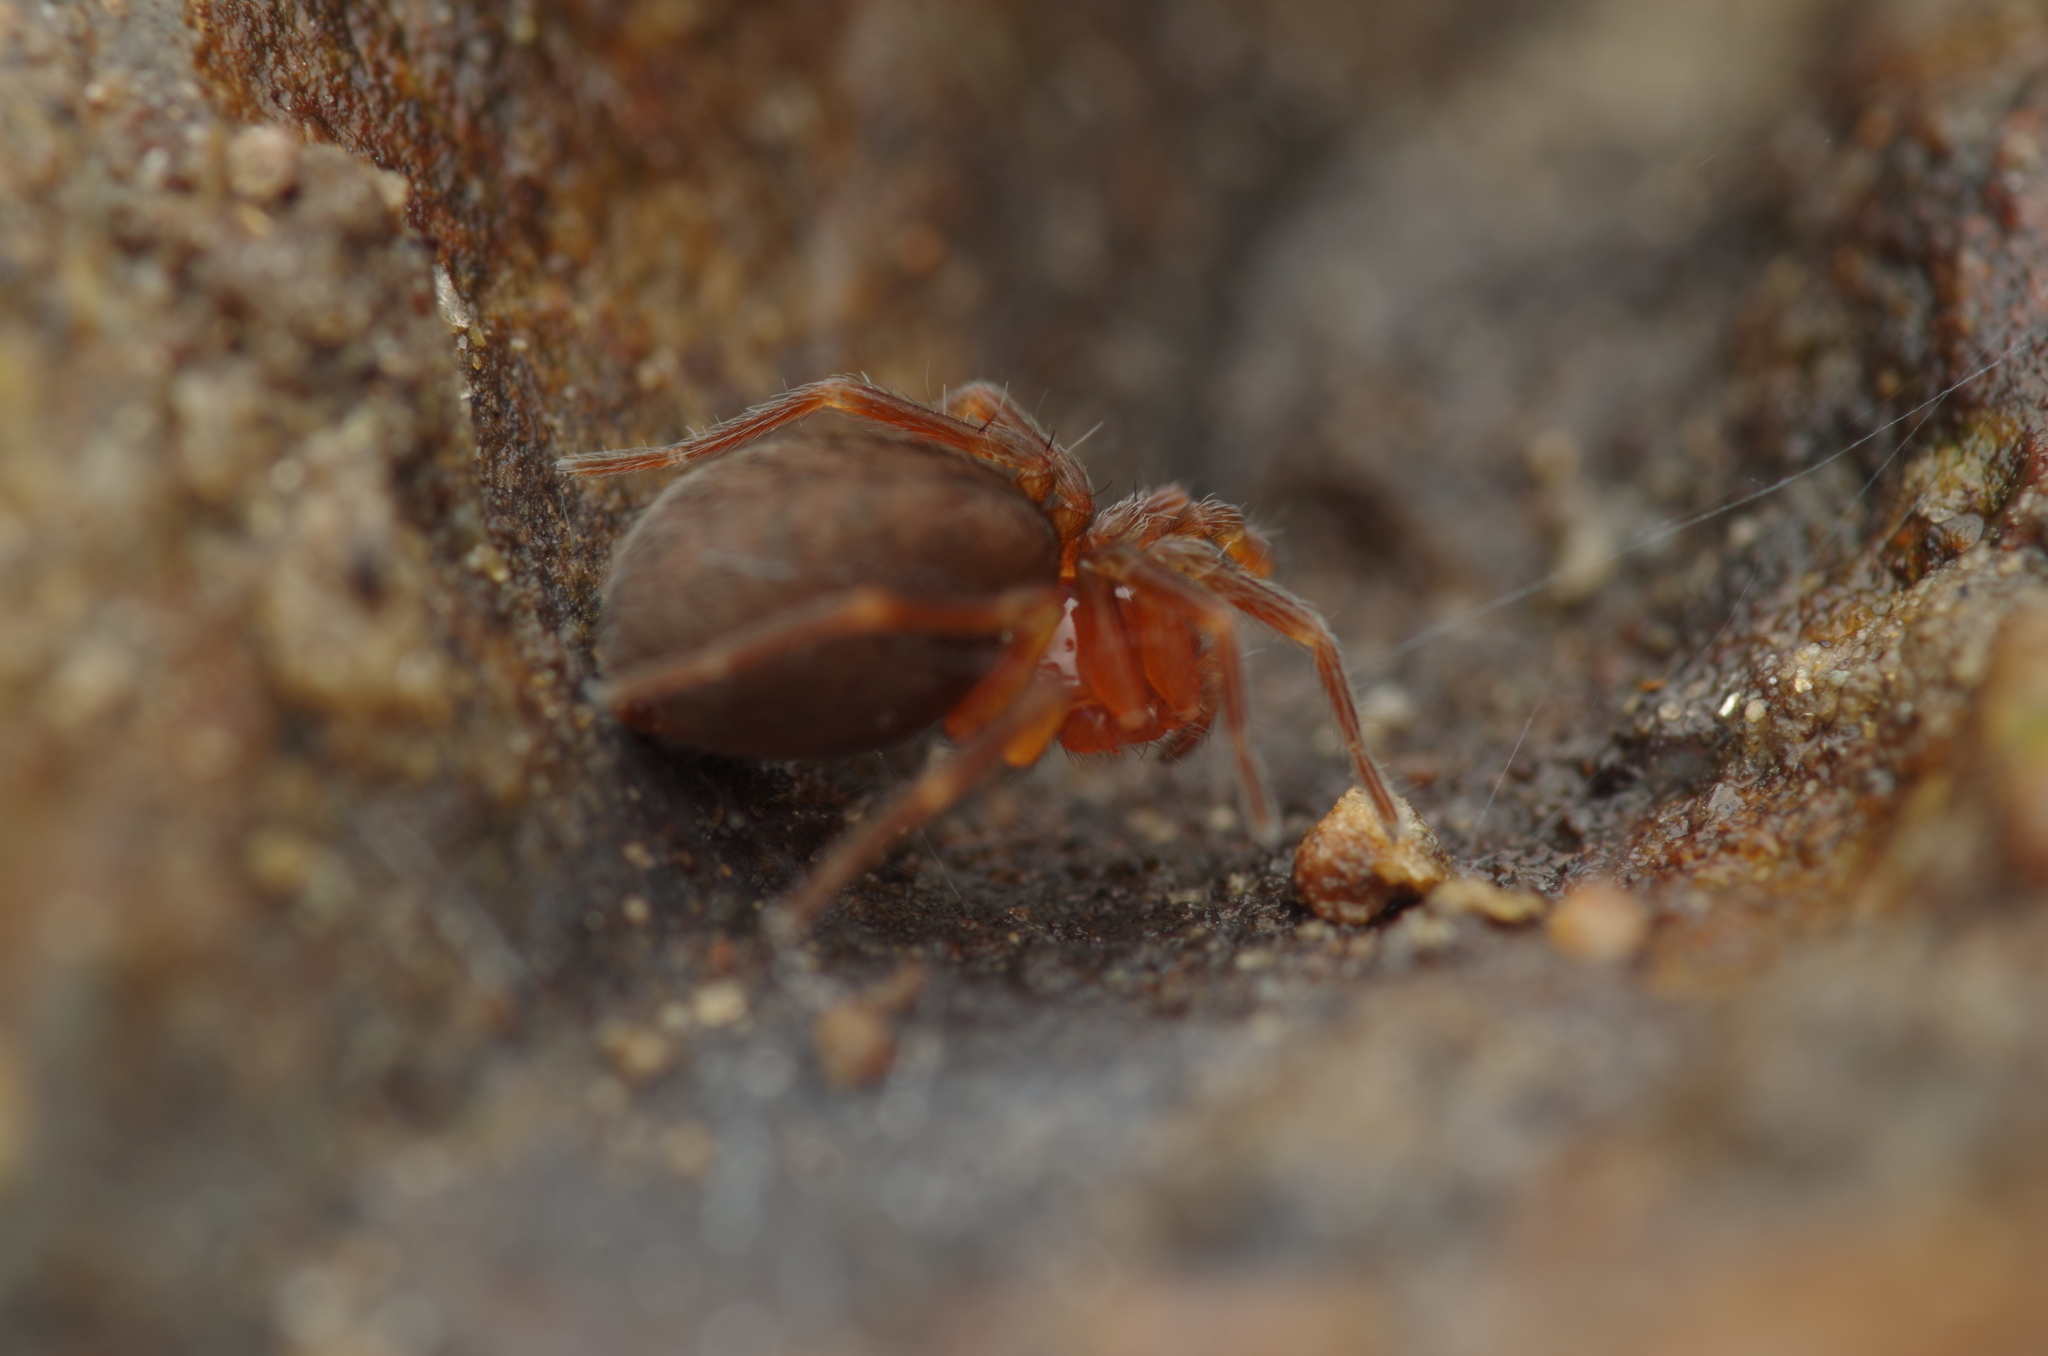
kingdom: Animalia
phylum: Arthropoda
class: Arachnida
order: Araneae
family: Hahniidae
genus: Antistea
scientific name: Antistea elegans
